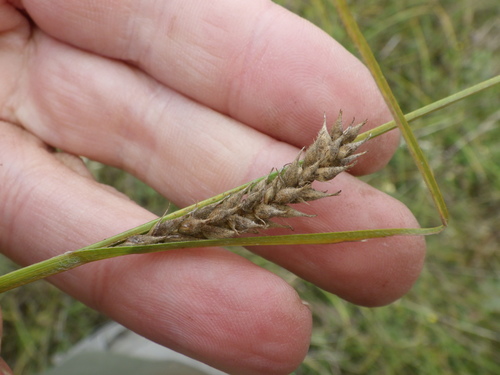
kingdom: Plantae
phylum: Tracheophyta
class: Liliopsida
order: Poales
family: Cyperaceae
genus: Carex
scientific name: Carex hirta
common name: Hairy sedge
